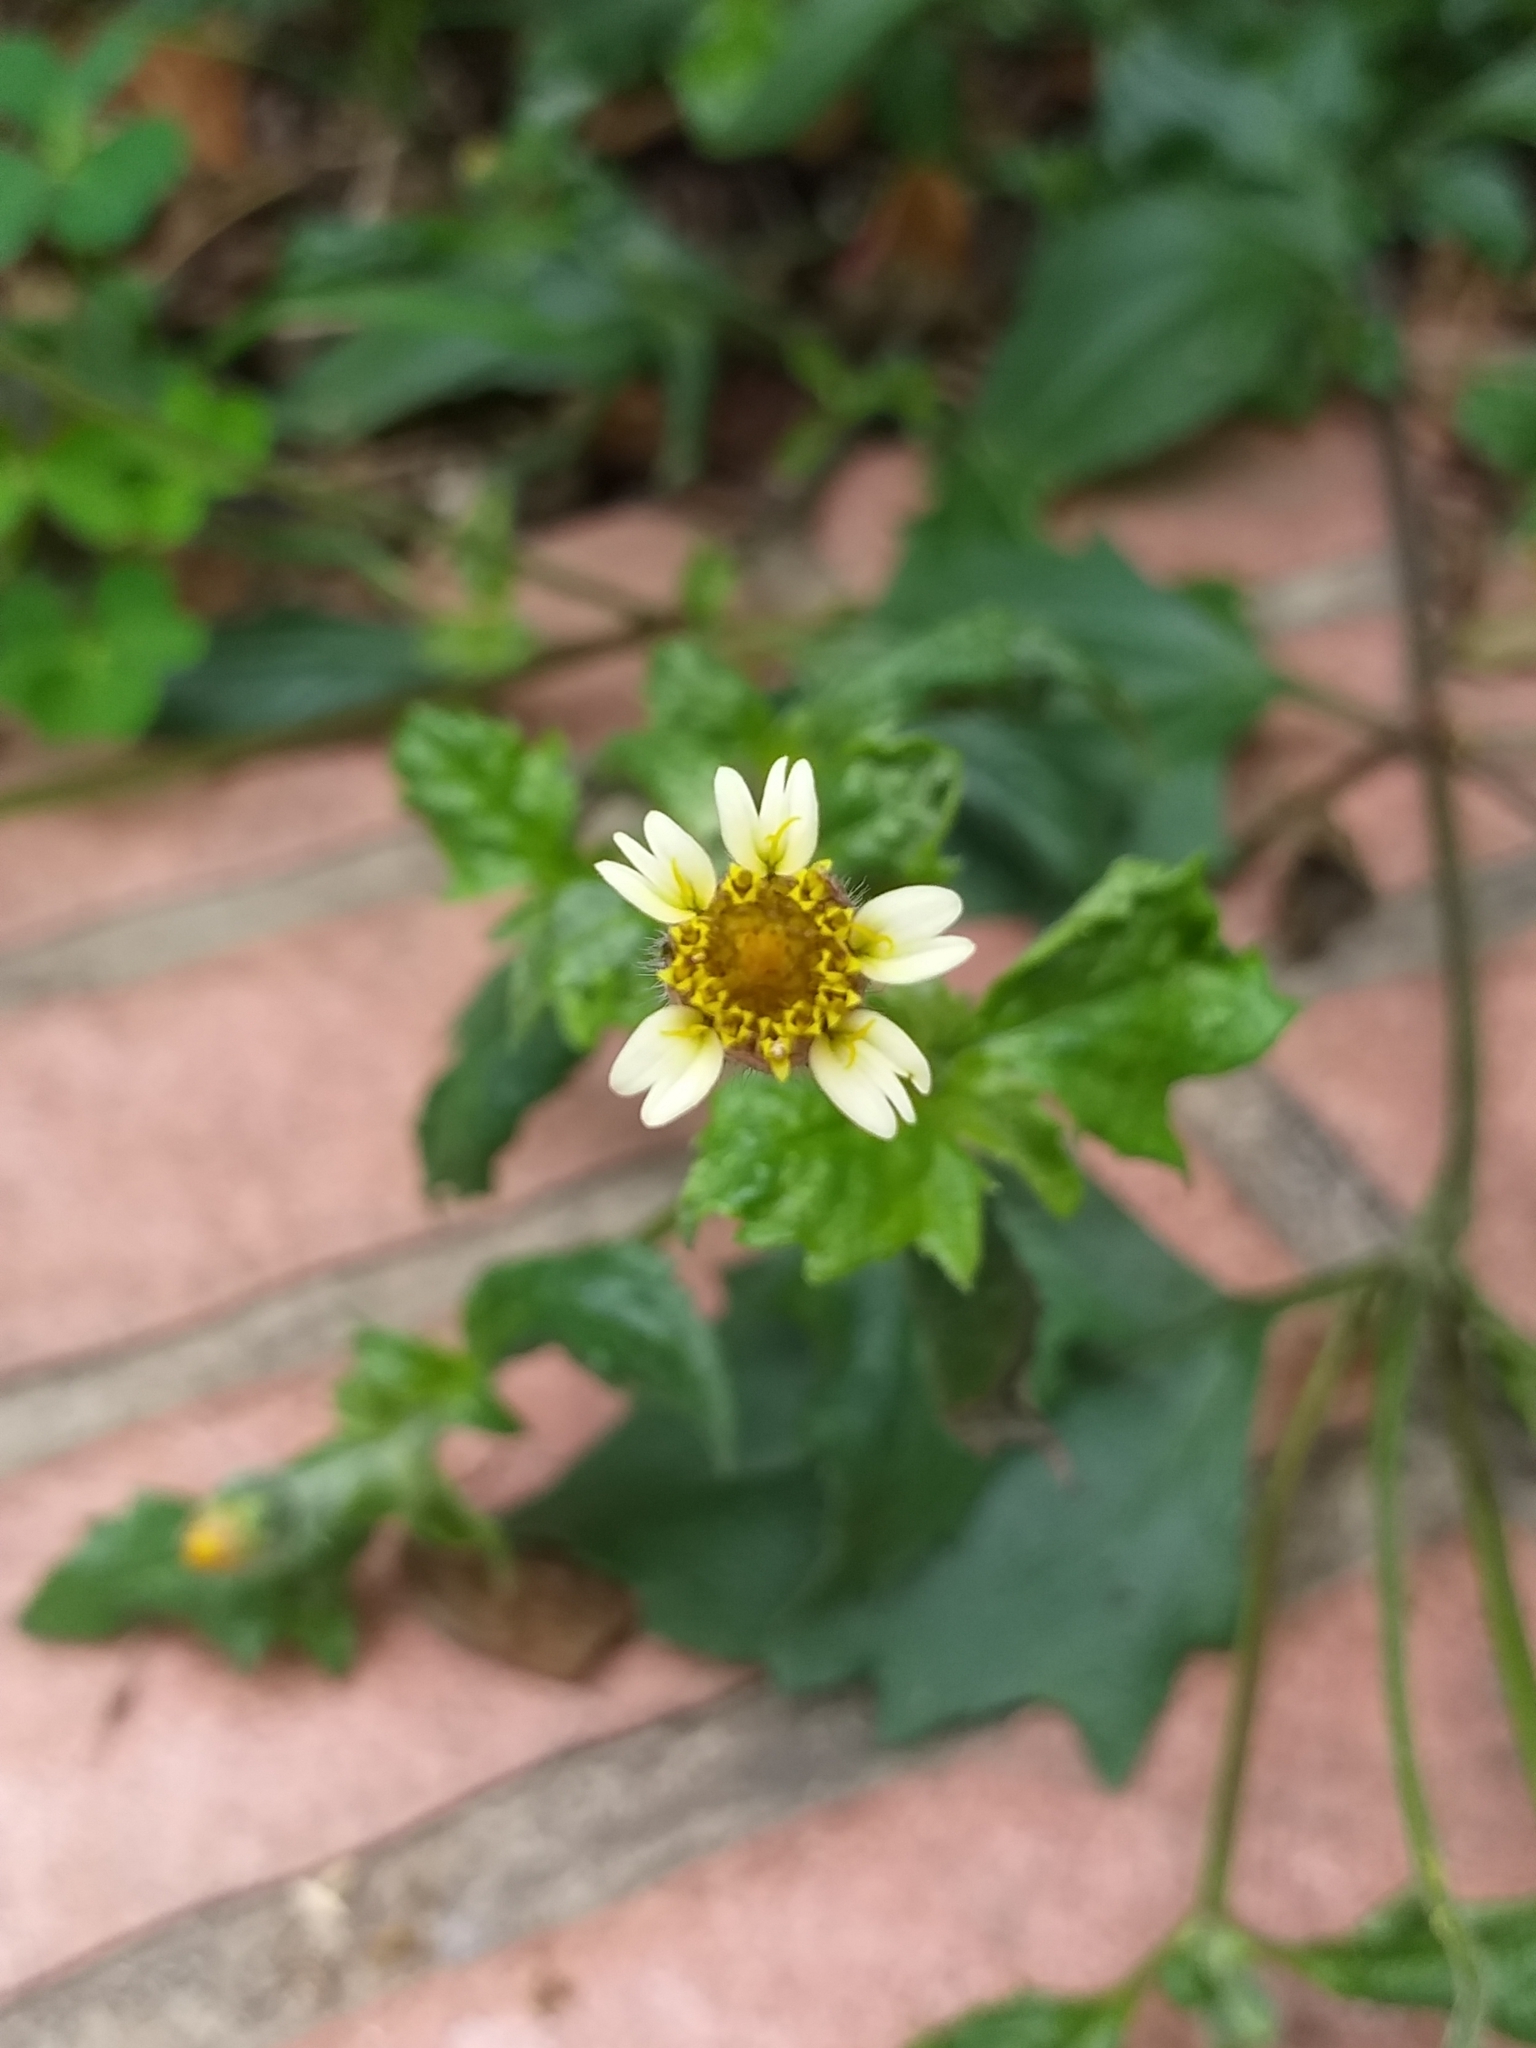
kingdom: Plantae
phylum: Tracheophyta
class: Magnoliopsida
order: Asterales
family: Asteraceae
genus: Tridax
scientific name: Tridax procumbens
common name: Coatbuttons
